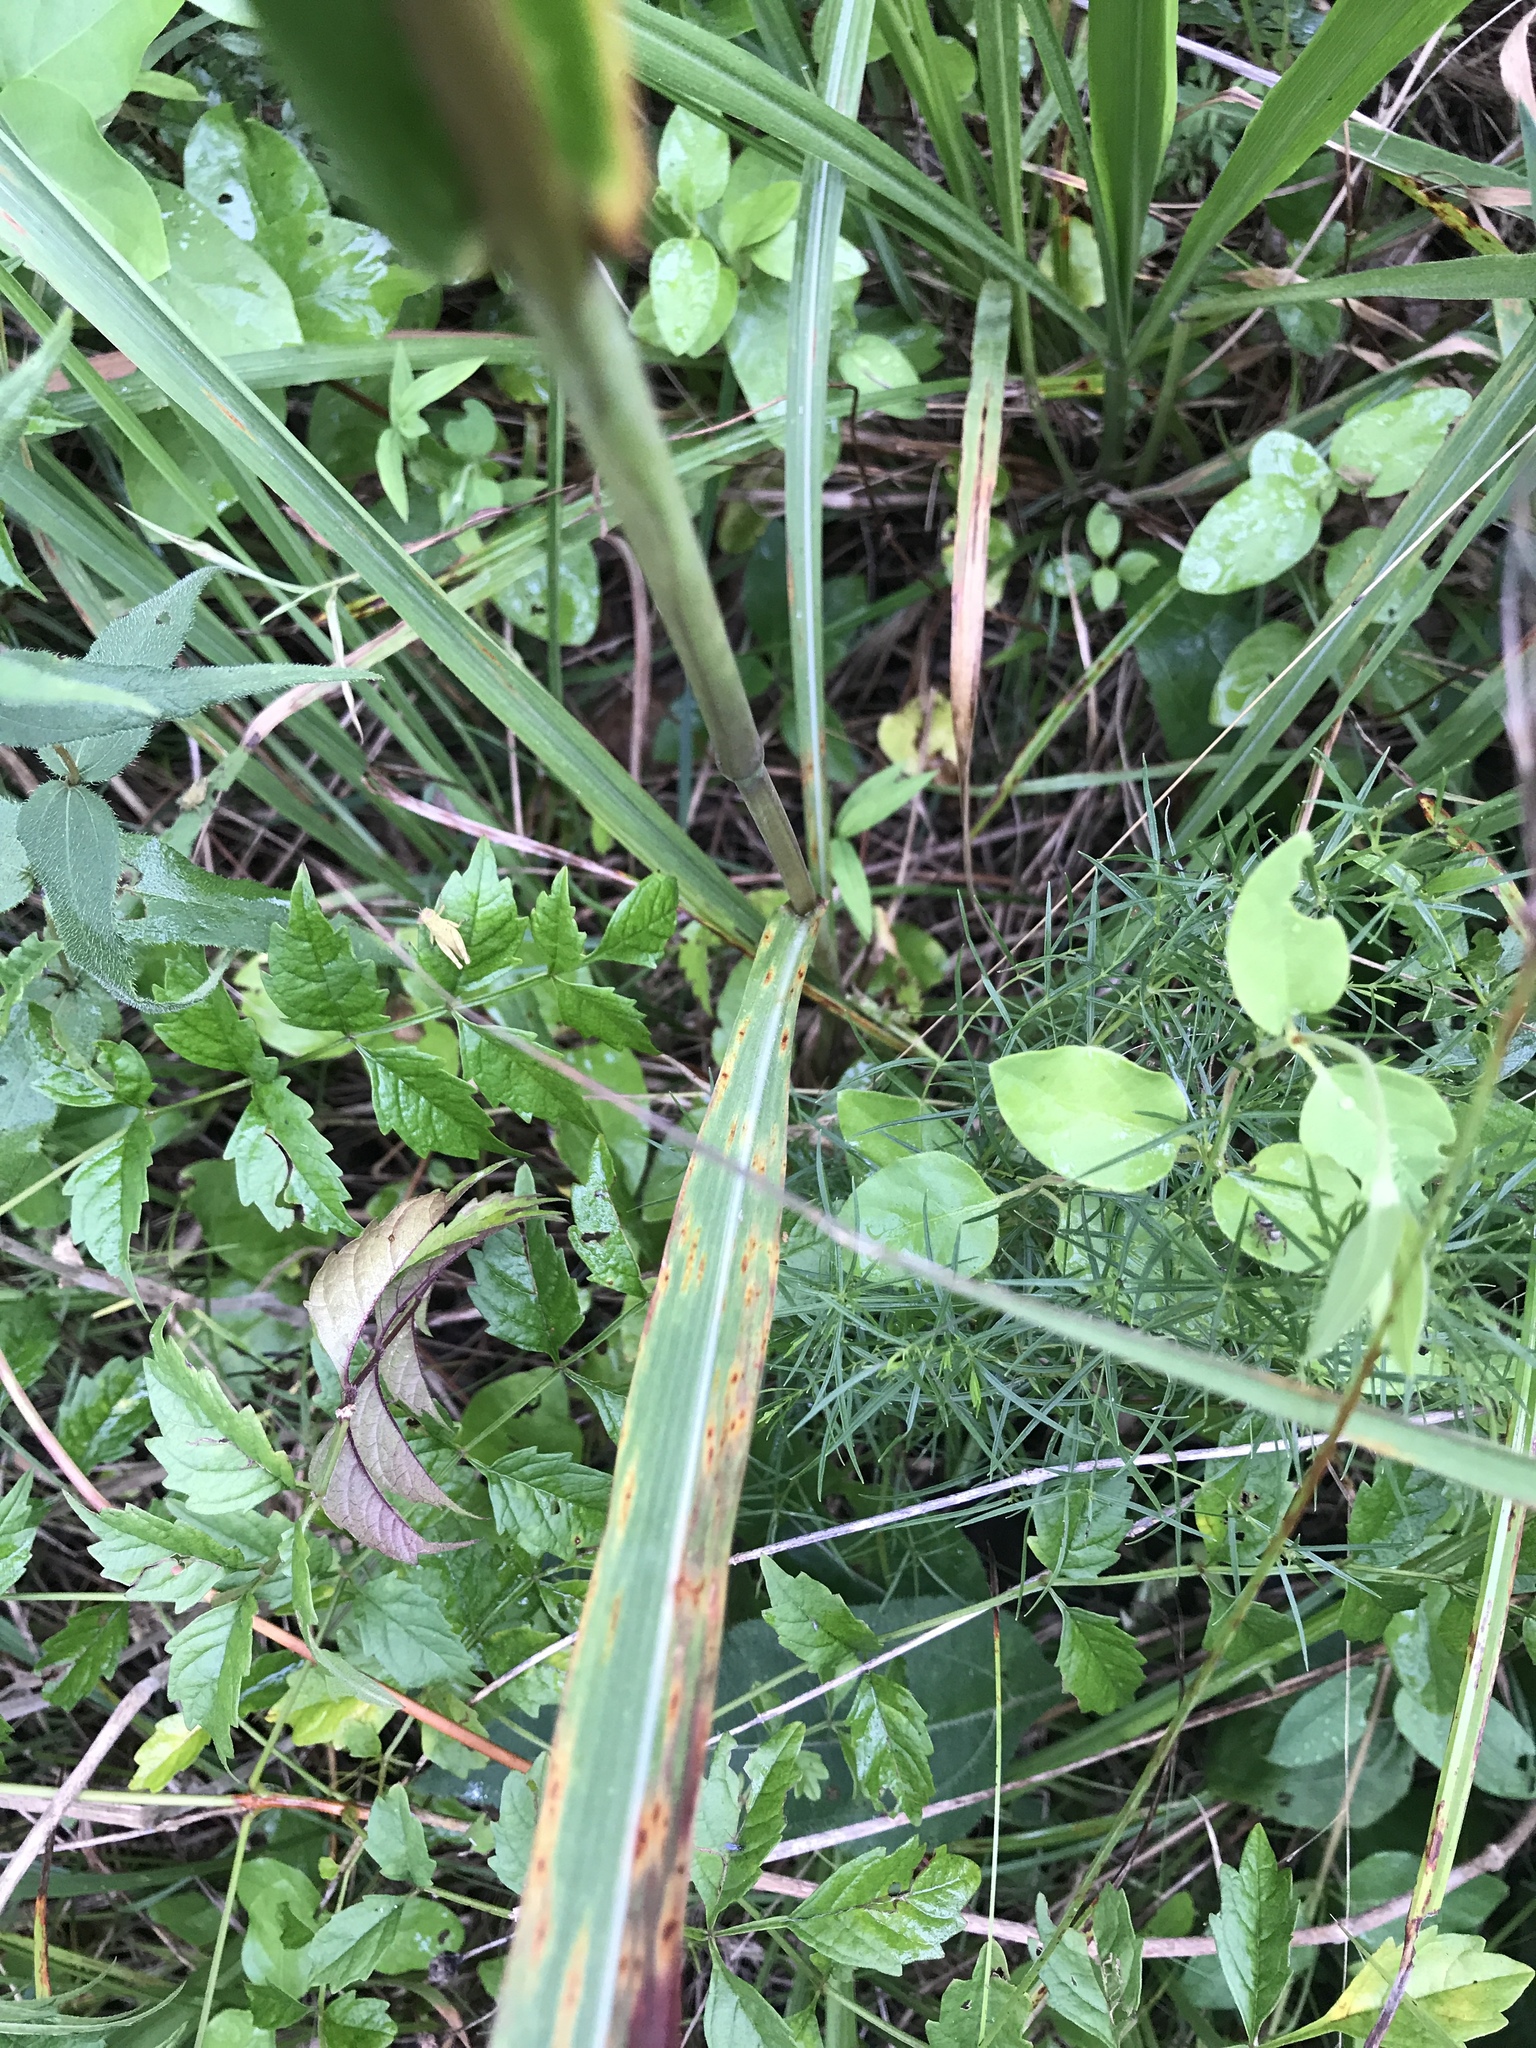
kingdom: Plantae
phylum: Tracheophyta
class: Liliopsida
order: Poales
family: Poaceae
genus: Tripsacum
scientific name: Tripsacum dactyloides
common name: Buffalo-grass
